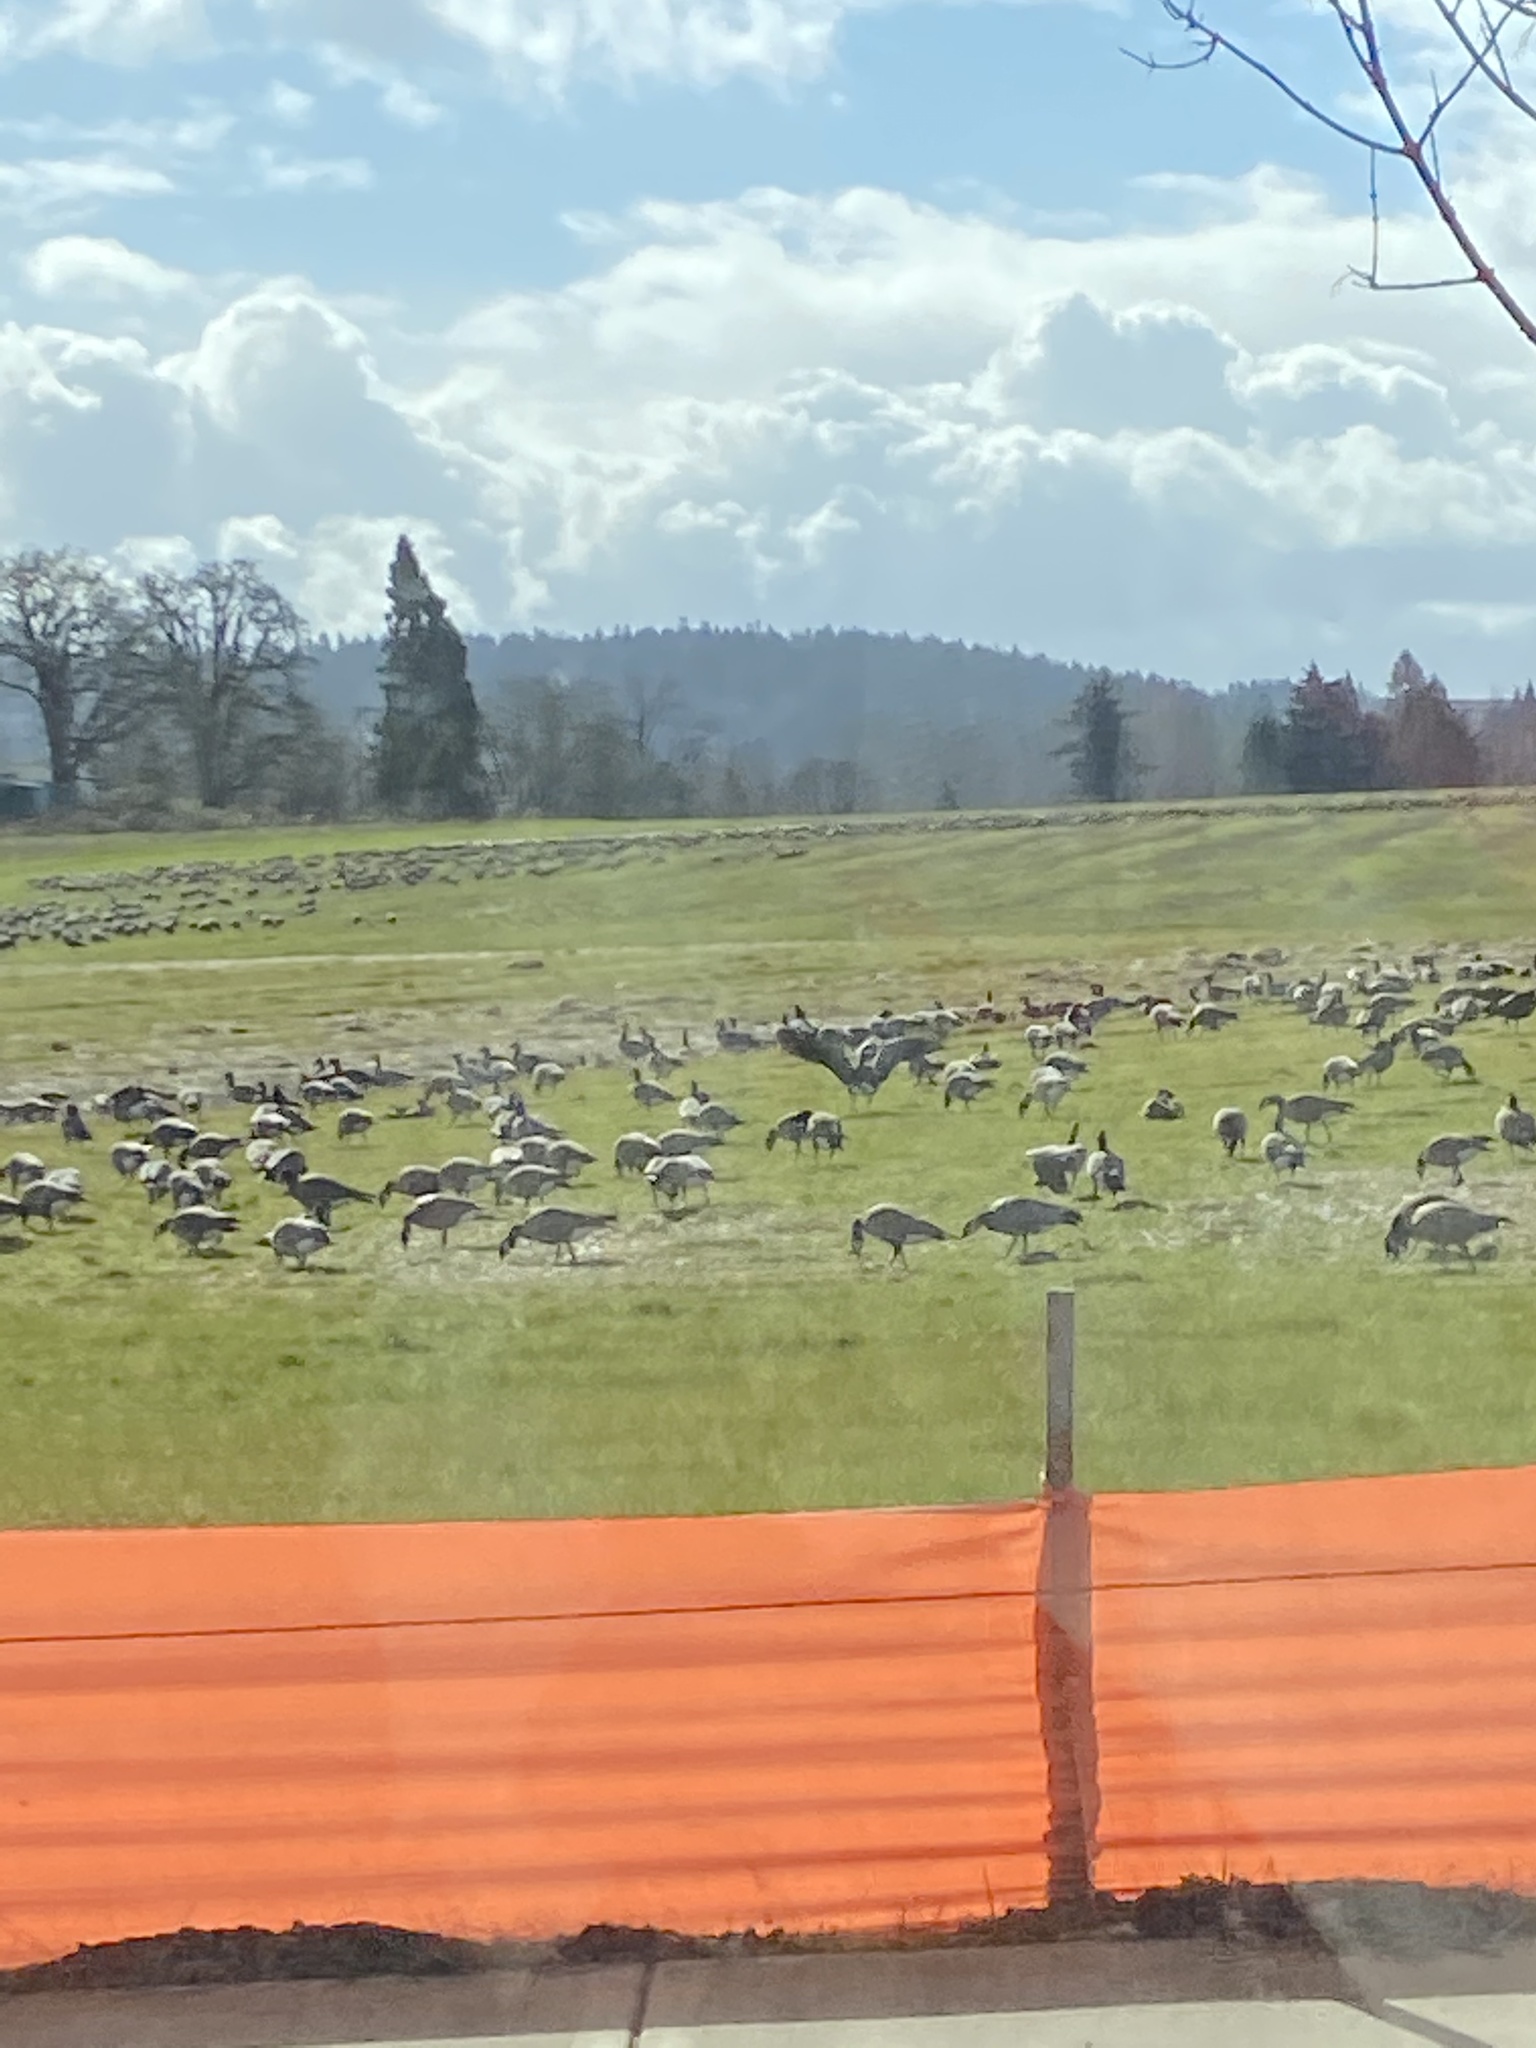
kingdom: Animalia
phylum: Chordata
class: Aves
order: Anseriformes
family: Anatidae
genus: Branta
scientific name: Branta hutchinsii
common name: Cackling goose
